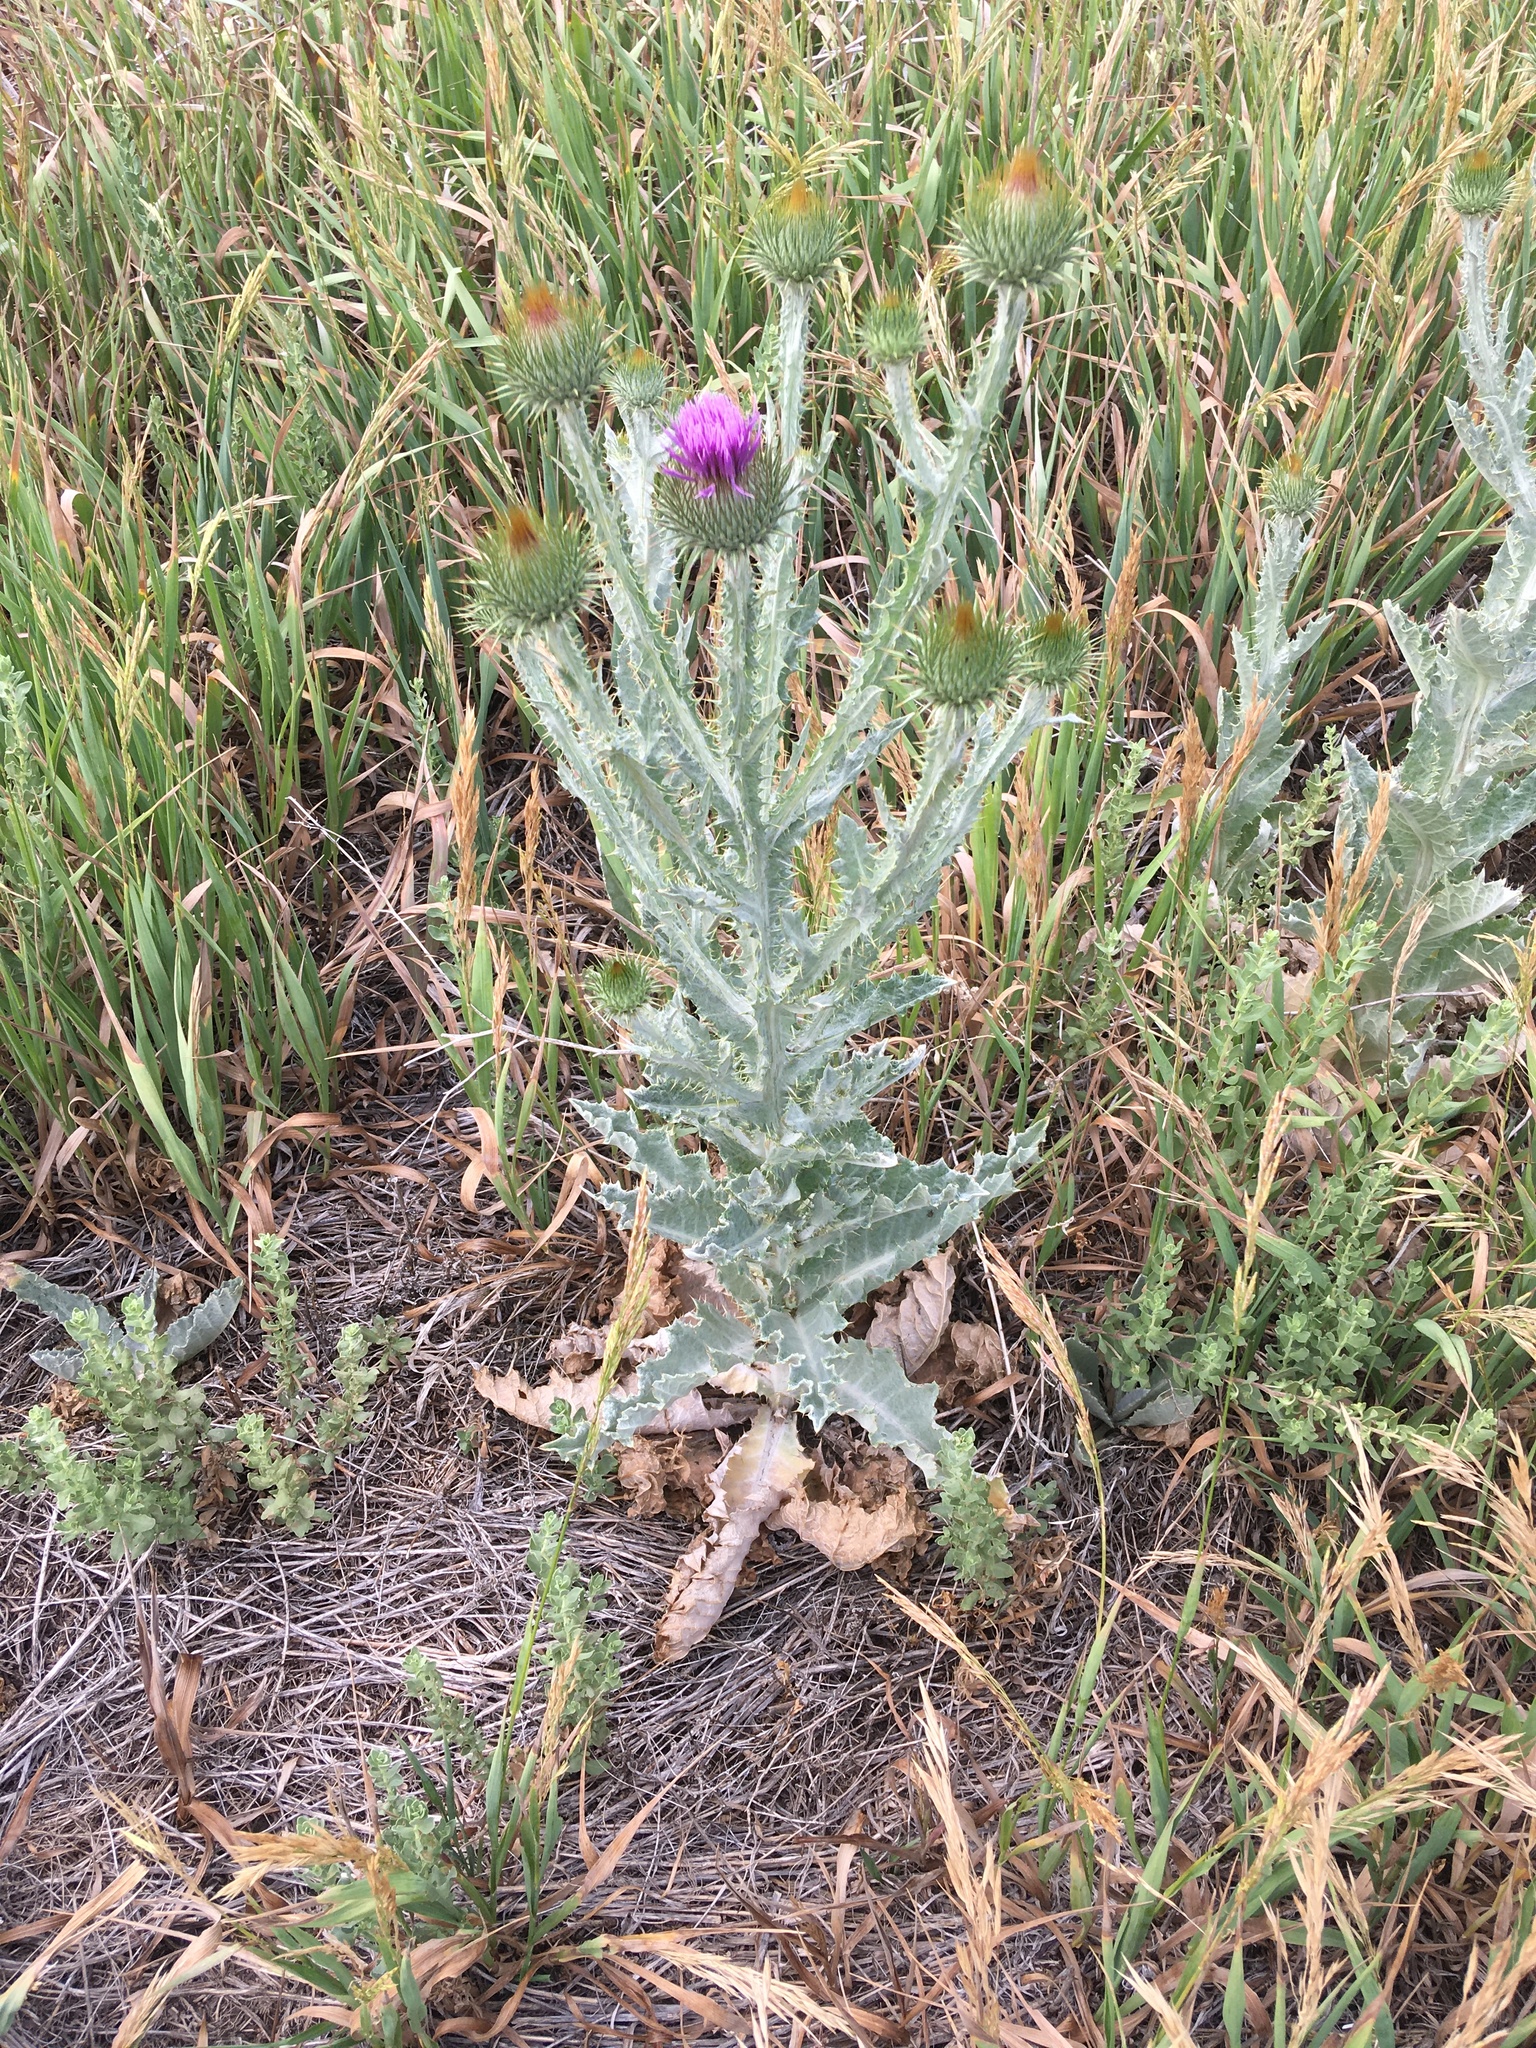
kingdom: Plantae
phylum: Tracheophyta
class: Magnoliopsida
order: Asterales
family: Asteraceae
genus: Onopordum
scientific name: Onopordum acanthium
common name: Scotch thistle
